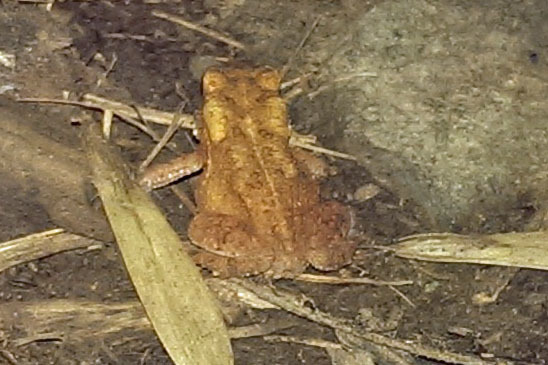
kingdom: Animalia
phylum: Chordata
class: Amphibia
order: Anura
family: Bufonidae
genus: Anaxyrus
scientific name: Anaxyrus americanus
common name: American toad
